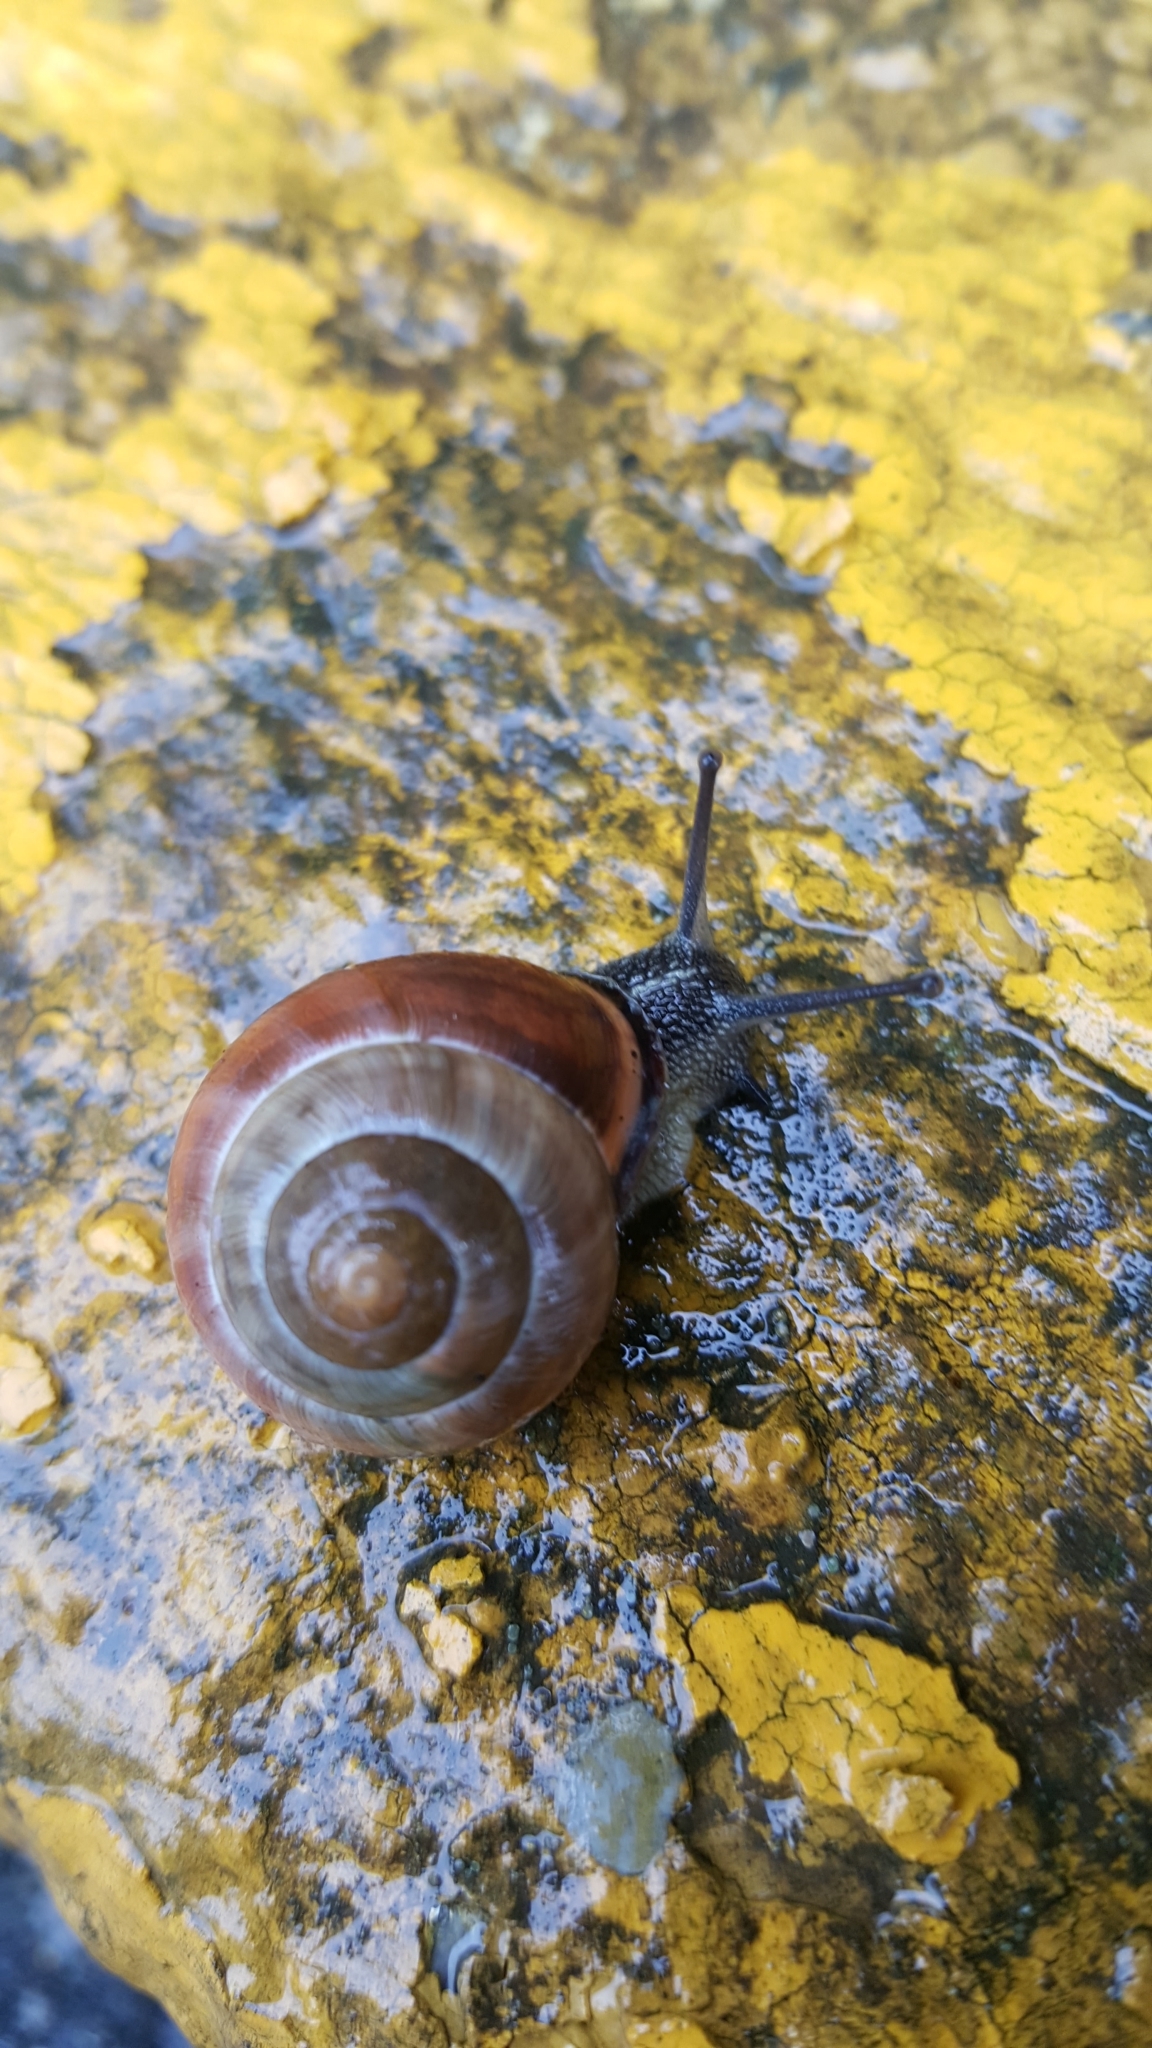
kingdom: Animalia
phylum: Mollusca
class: Gastropoda
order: Stylommatophora
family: Helicidae
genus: Cepaea
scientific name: Cepaea nemoralis
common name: Grovesnail
